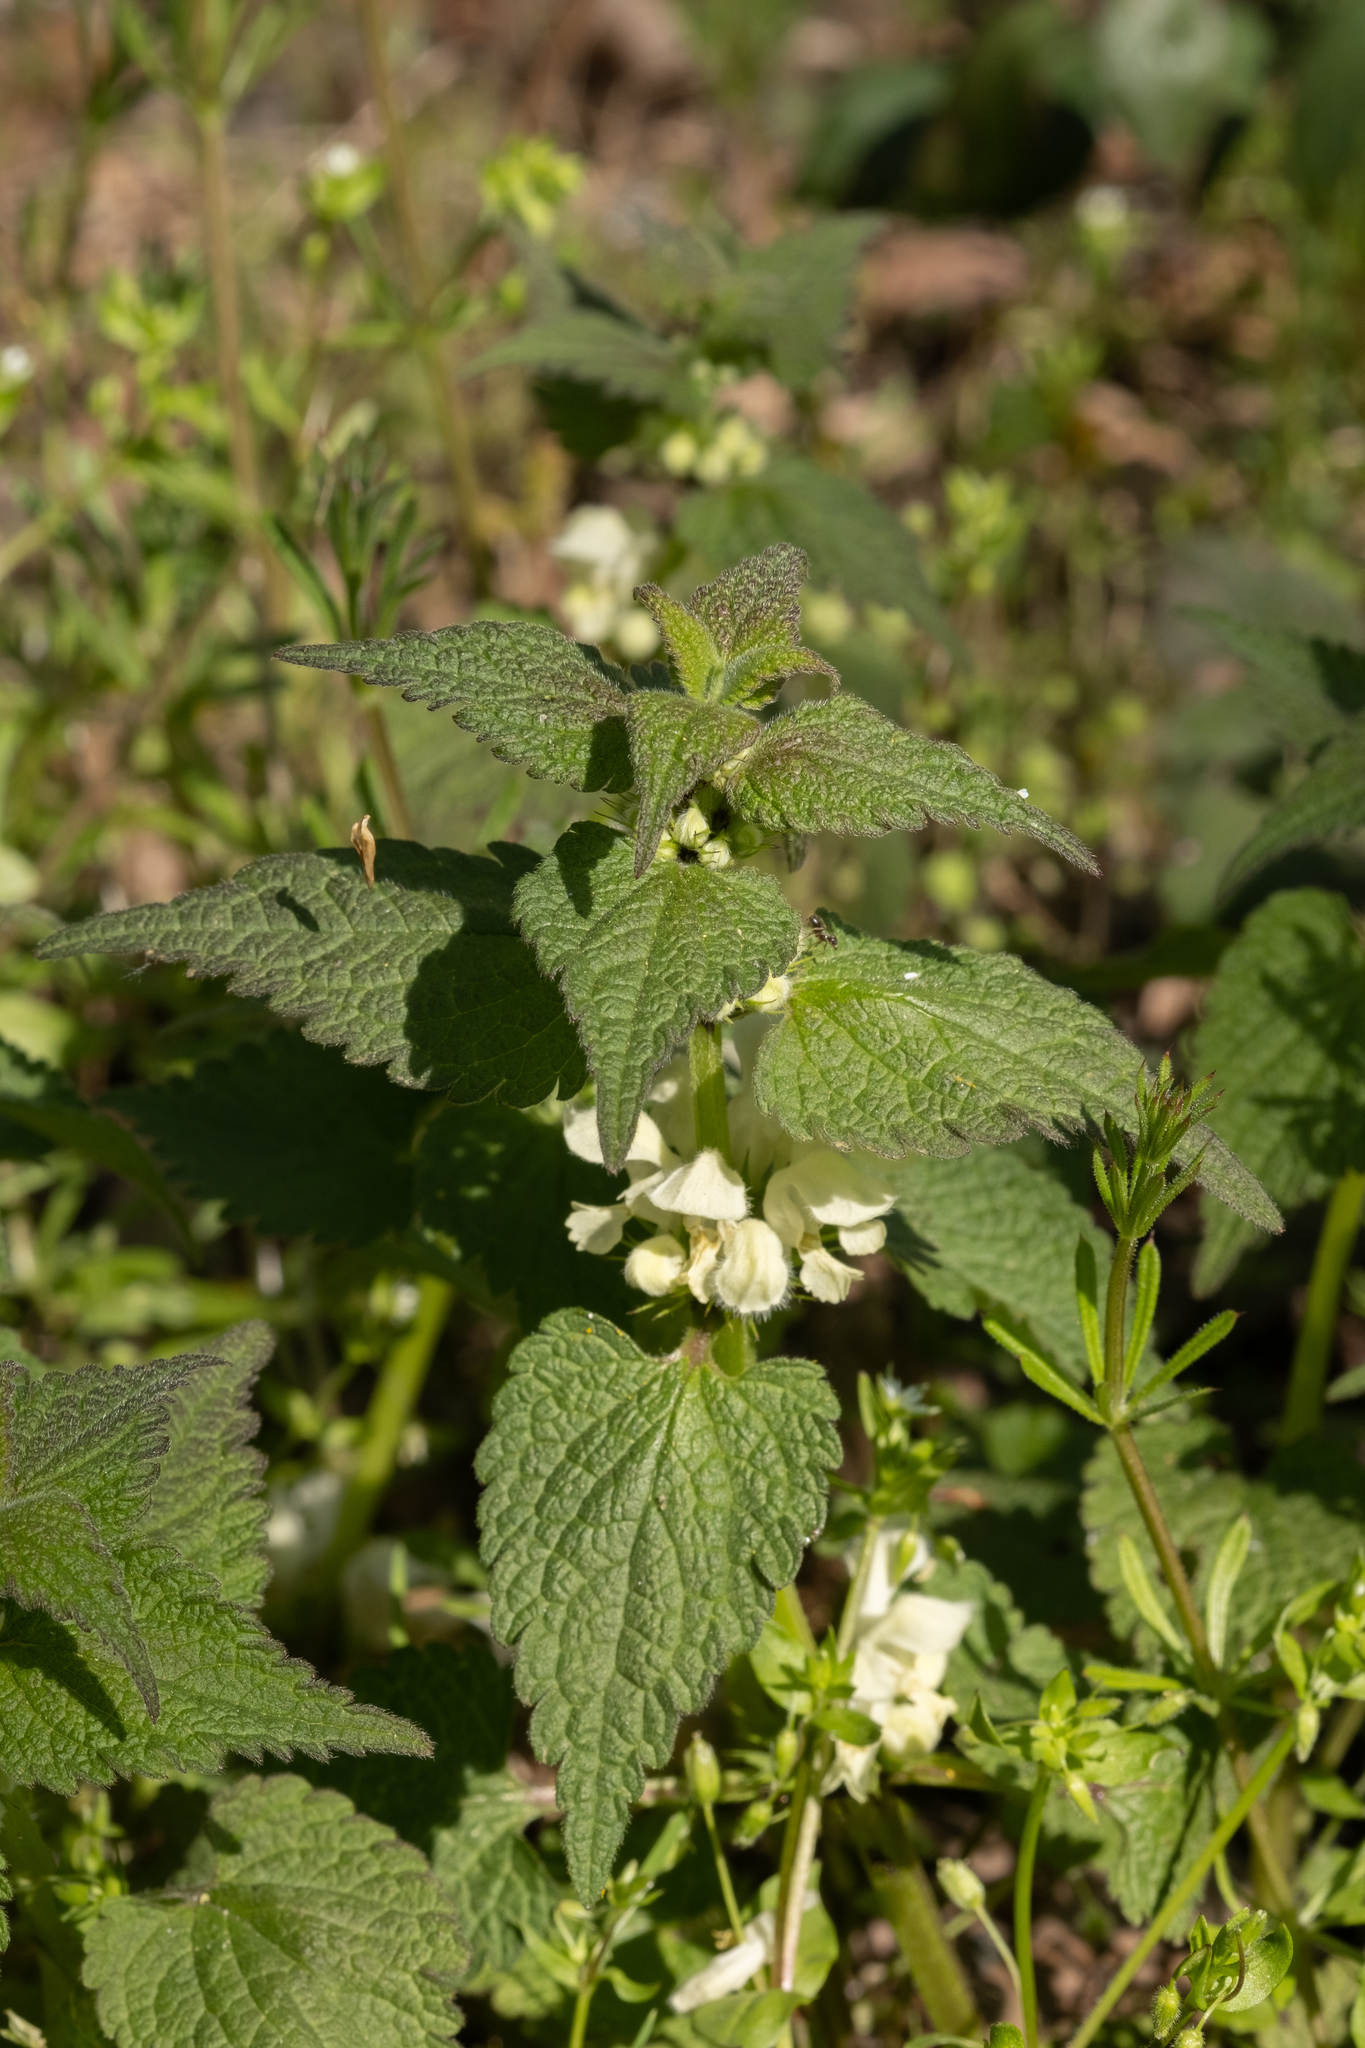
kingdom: Plantae
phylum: Tracheophyta
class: Magnoliopsida
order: Lamiales
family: Lamiaceae
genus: Lamium
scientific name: Lamium album
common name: White dead-nettle
